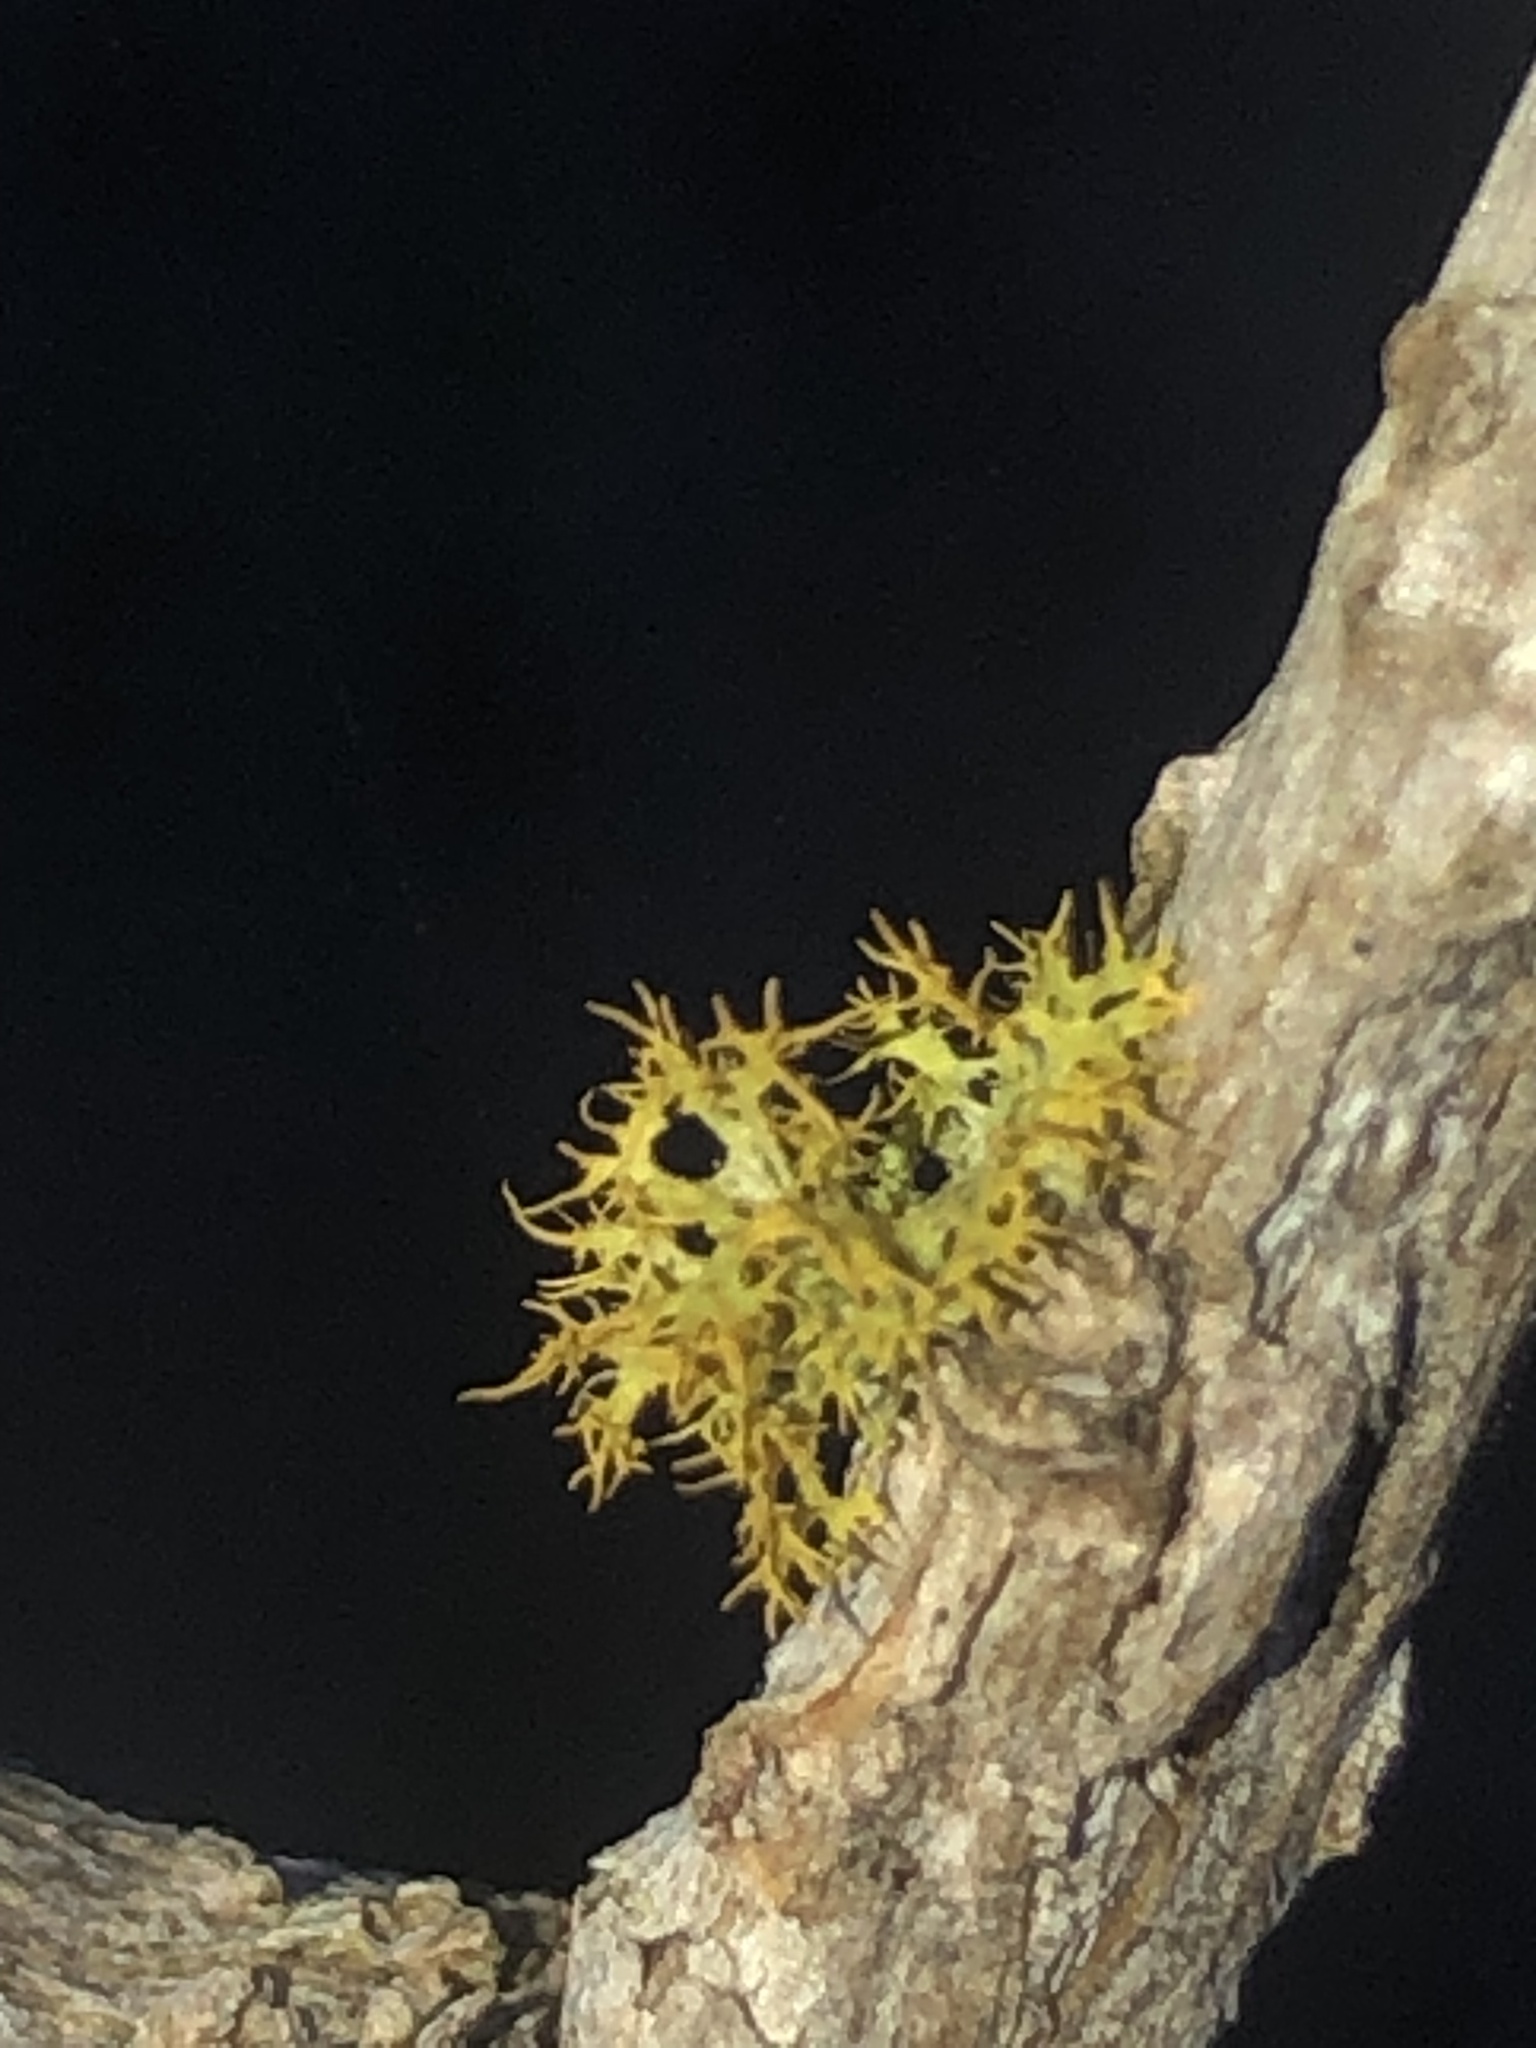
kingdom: Fungi
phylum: Ascomycota
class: Lecanoromycetes
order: Teloschistales
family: Teloschistaceae
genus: Niorma
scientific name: Niorma chrysophthalma
